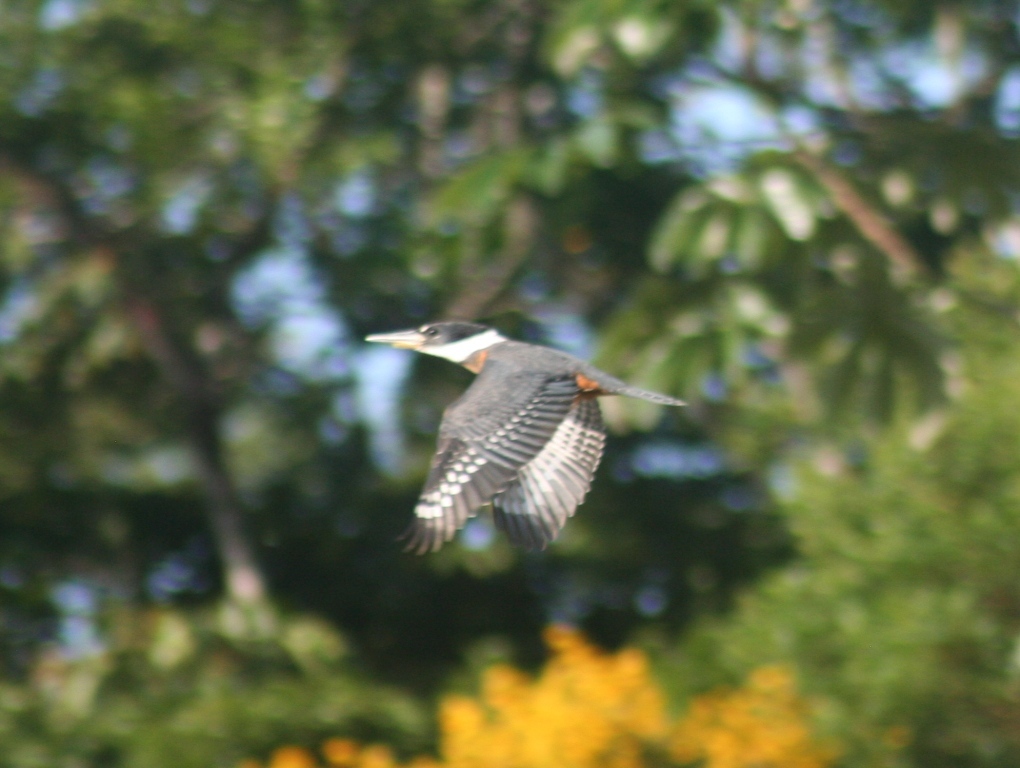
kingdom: Animalia
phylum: Chordata
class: Aves
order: Coraciiformes
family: Alcedinidae
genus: Megaceryle
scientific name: Megaceryle torquata
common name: Ringed kingfisher
